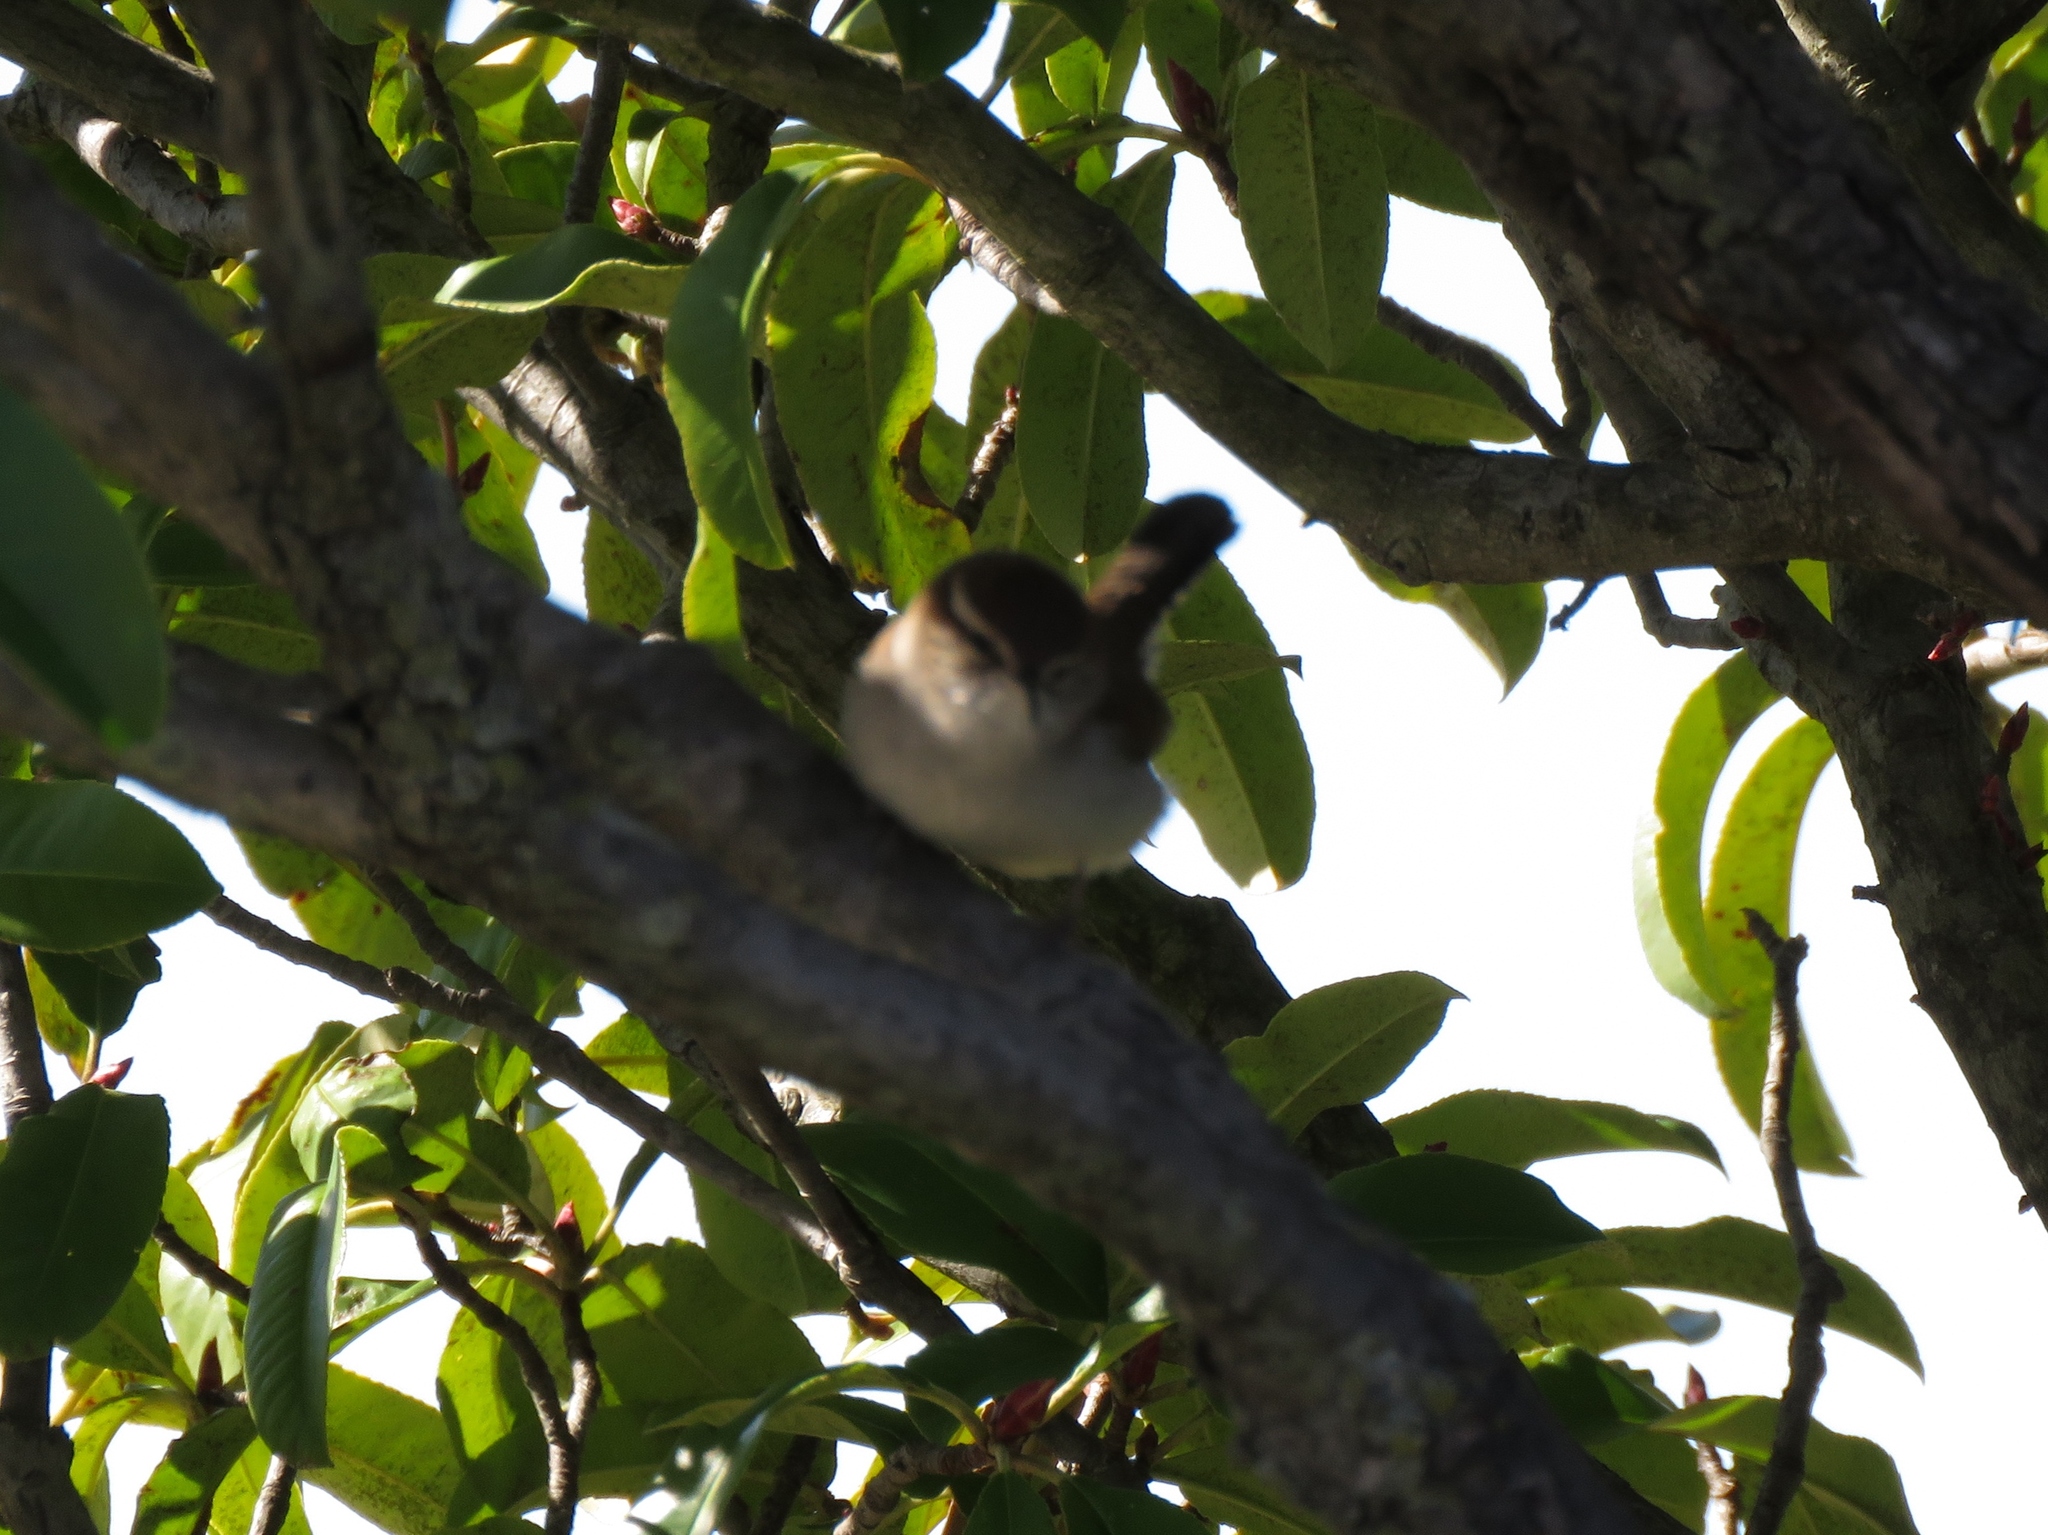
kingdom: Animalia
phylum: Chordata
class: Aves
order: Passeriformes
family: Troglodytidae
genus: Thryomanes
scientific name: Thryomanes bewickii
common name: Bewick's wren
